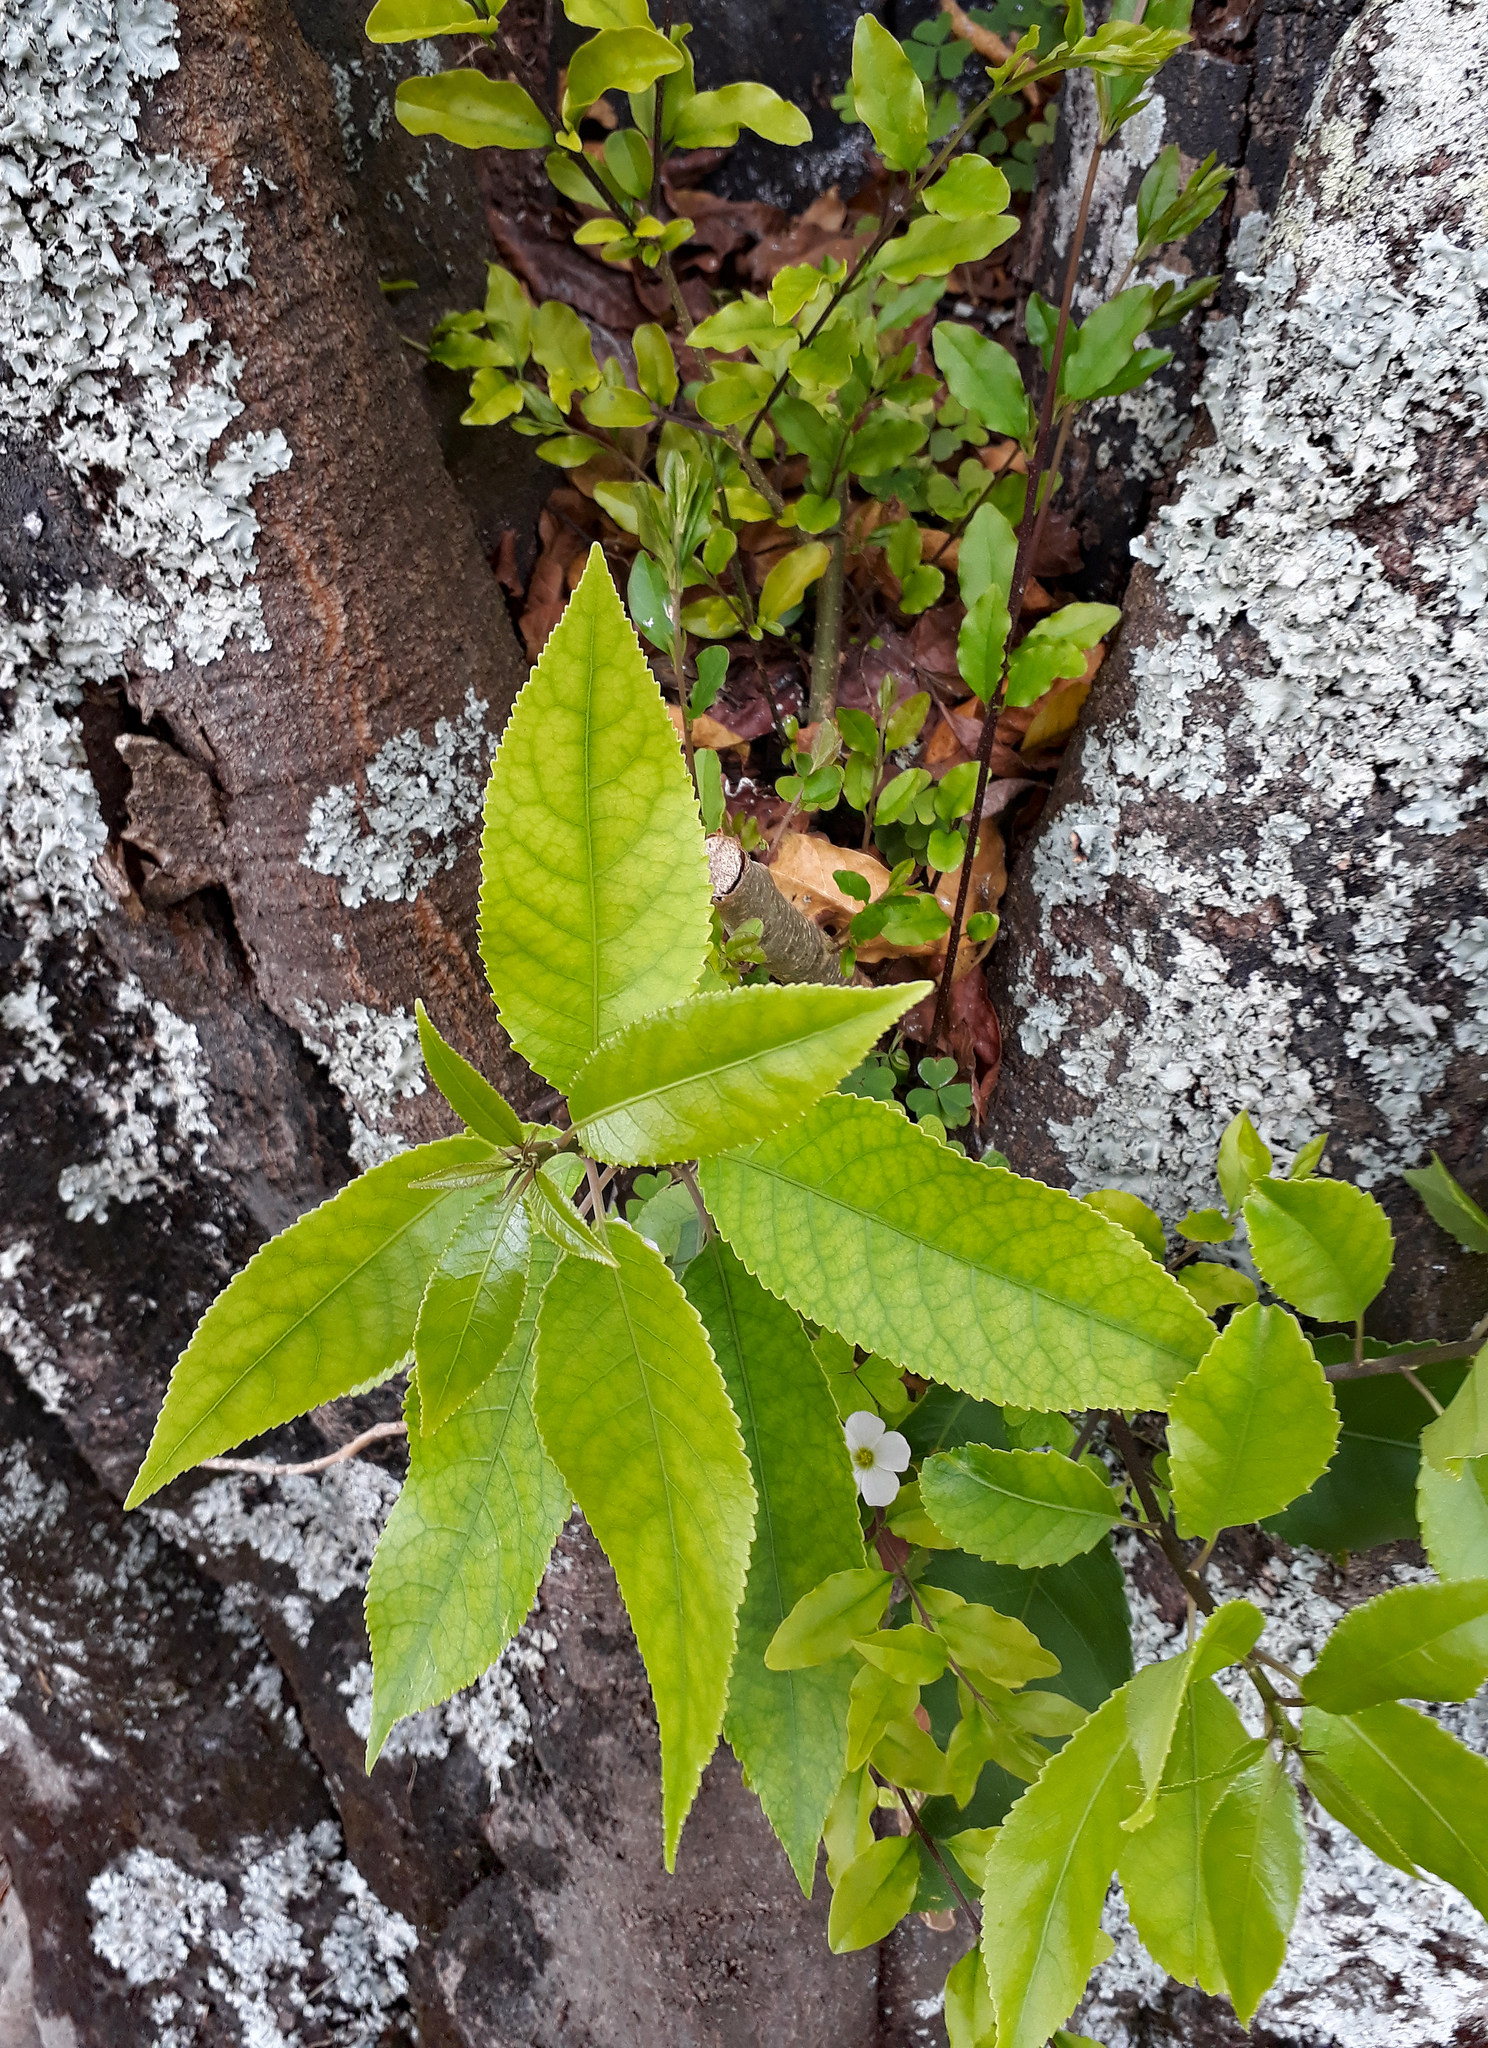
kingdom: Plantae
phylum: Tracheophyta
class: Magnoliopsida
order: Malpighiales
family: Violaceae
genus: Melicytus
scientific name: Melicytus ramiflorus
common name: Mahoe
